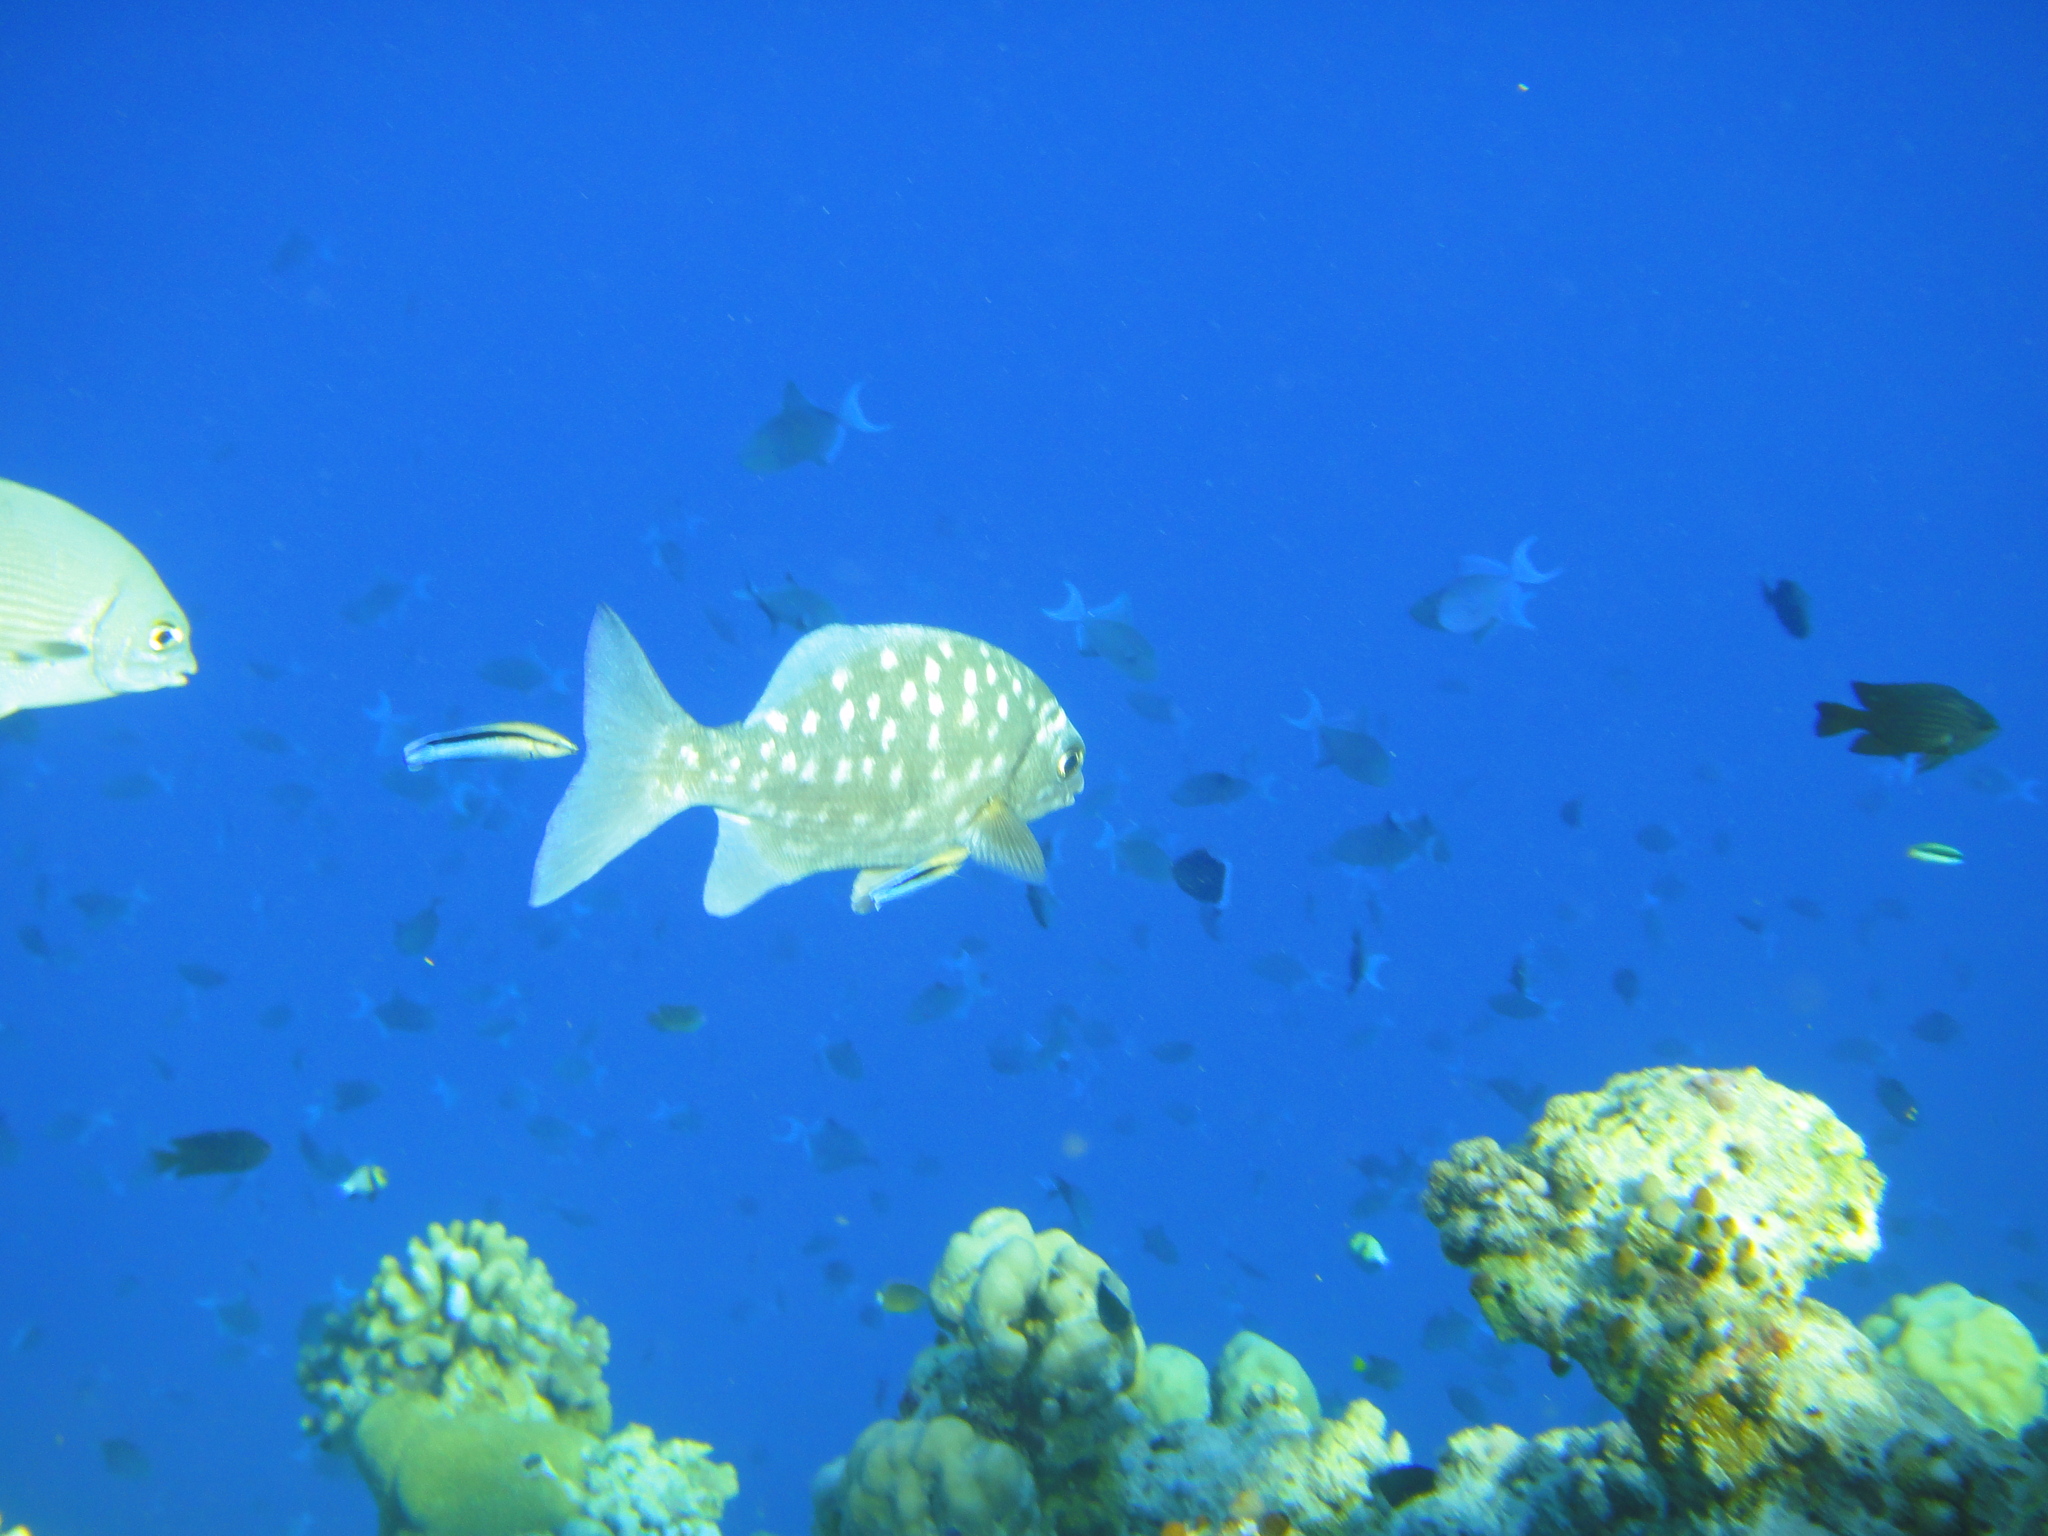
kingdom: Animalia
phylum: Chordata
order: Perciformes
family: Kyphosidae
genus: Kyphosus
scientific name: Kyphosus cinerascens
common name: Topsail drummer
